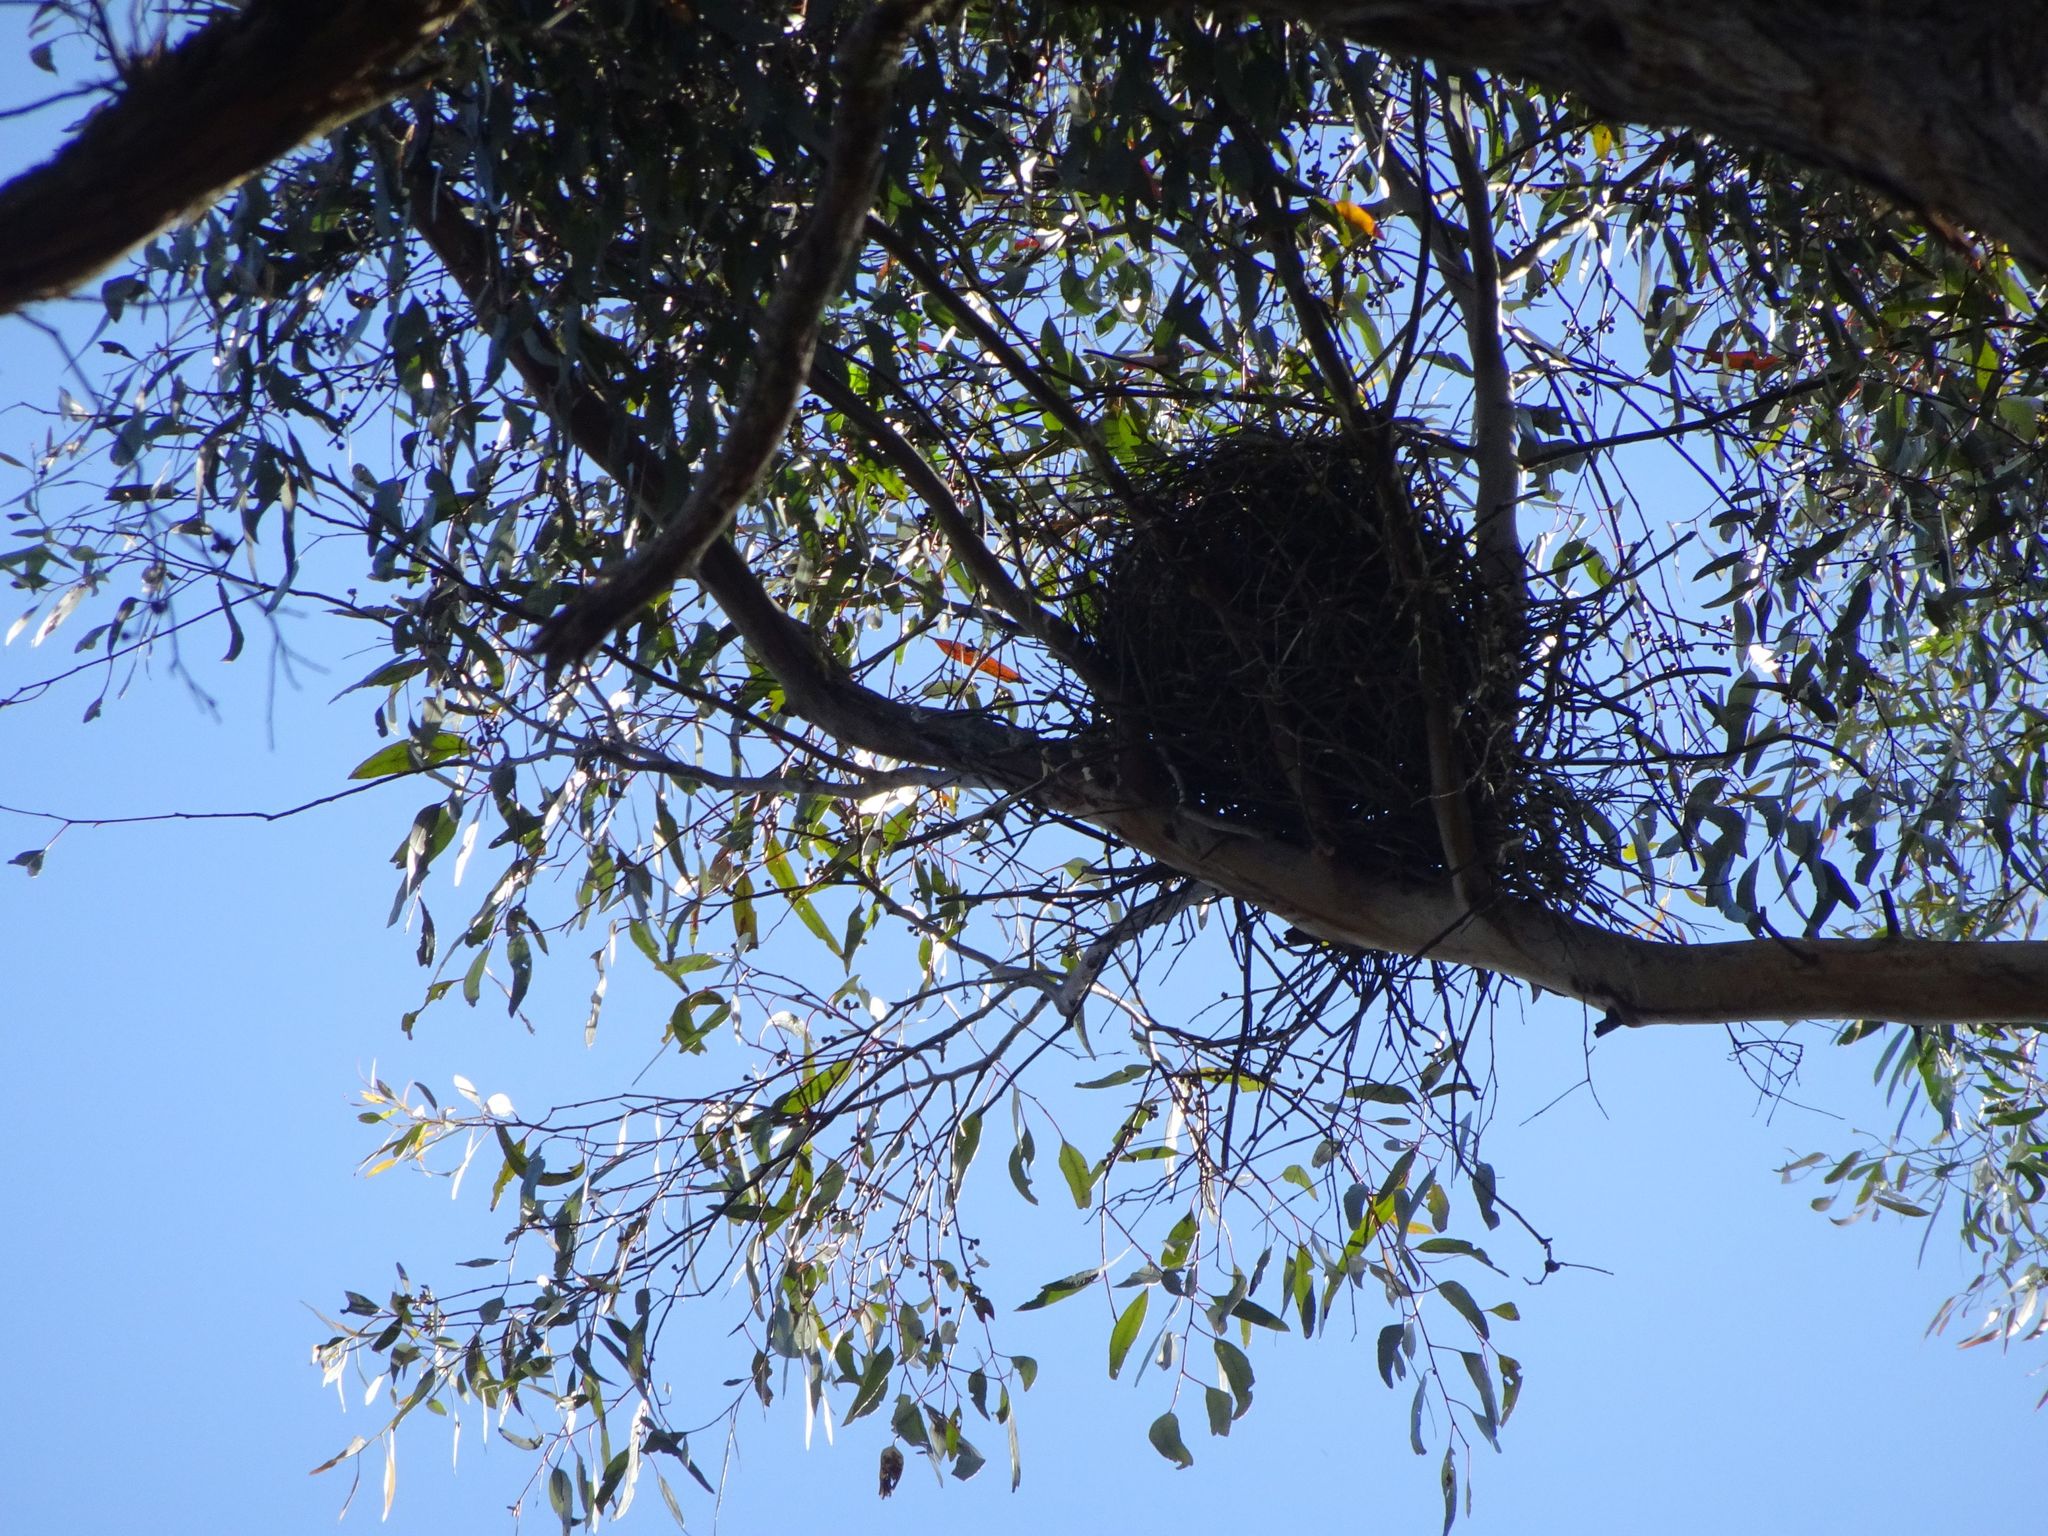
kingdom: Animalia
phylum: Chordata
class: Aves
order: Passeriformes
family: Cracticidae
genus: Strepera
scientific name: Strepera graculina
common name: Pied currawong
